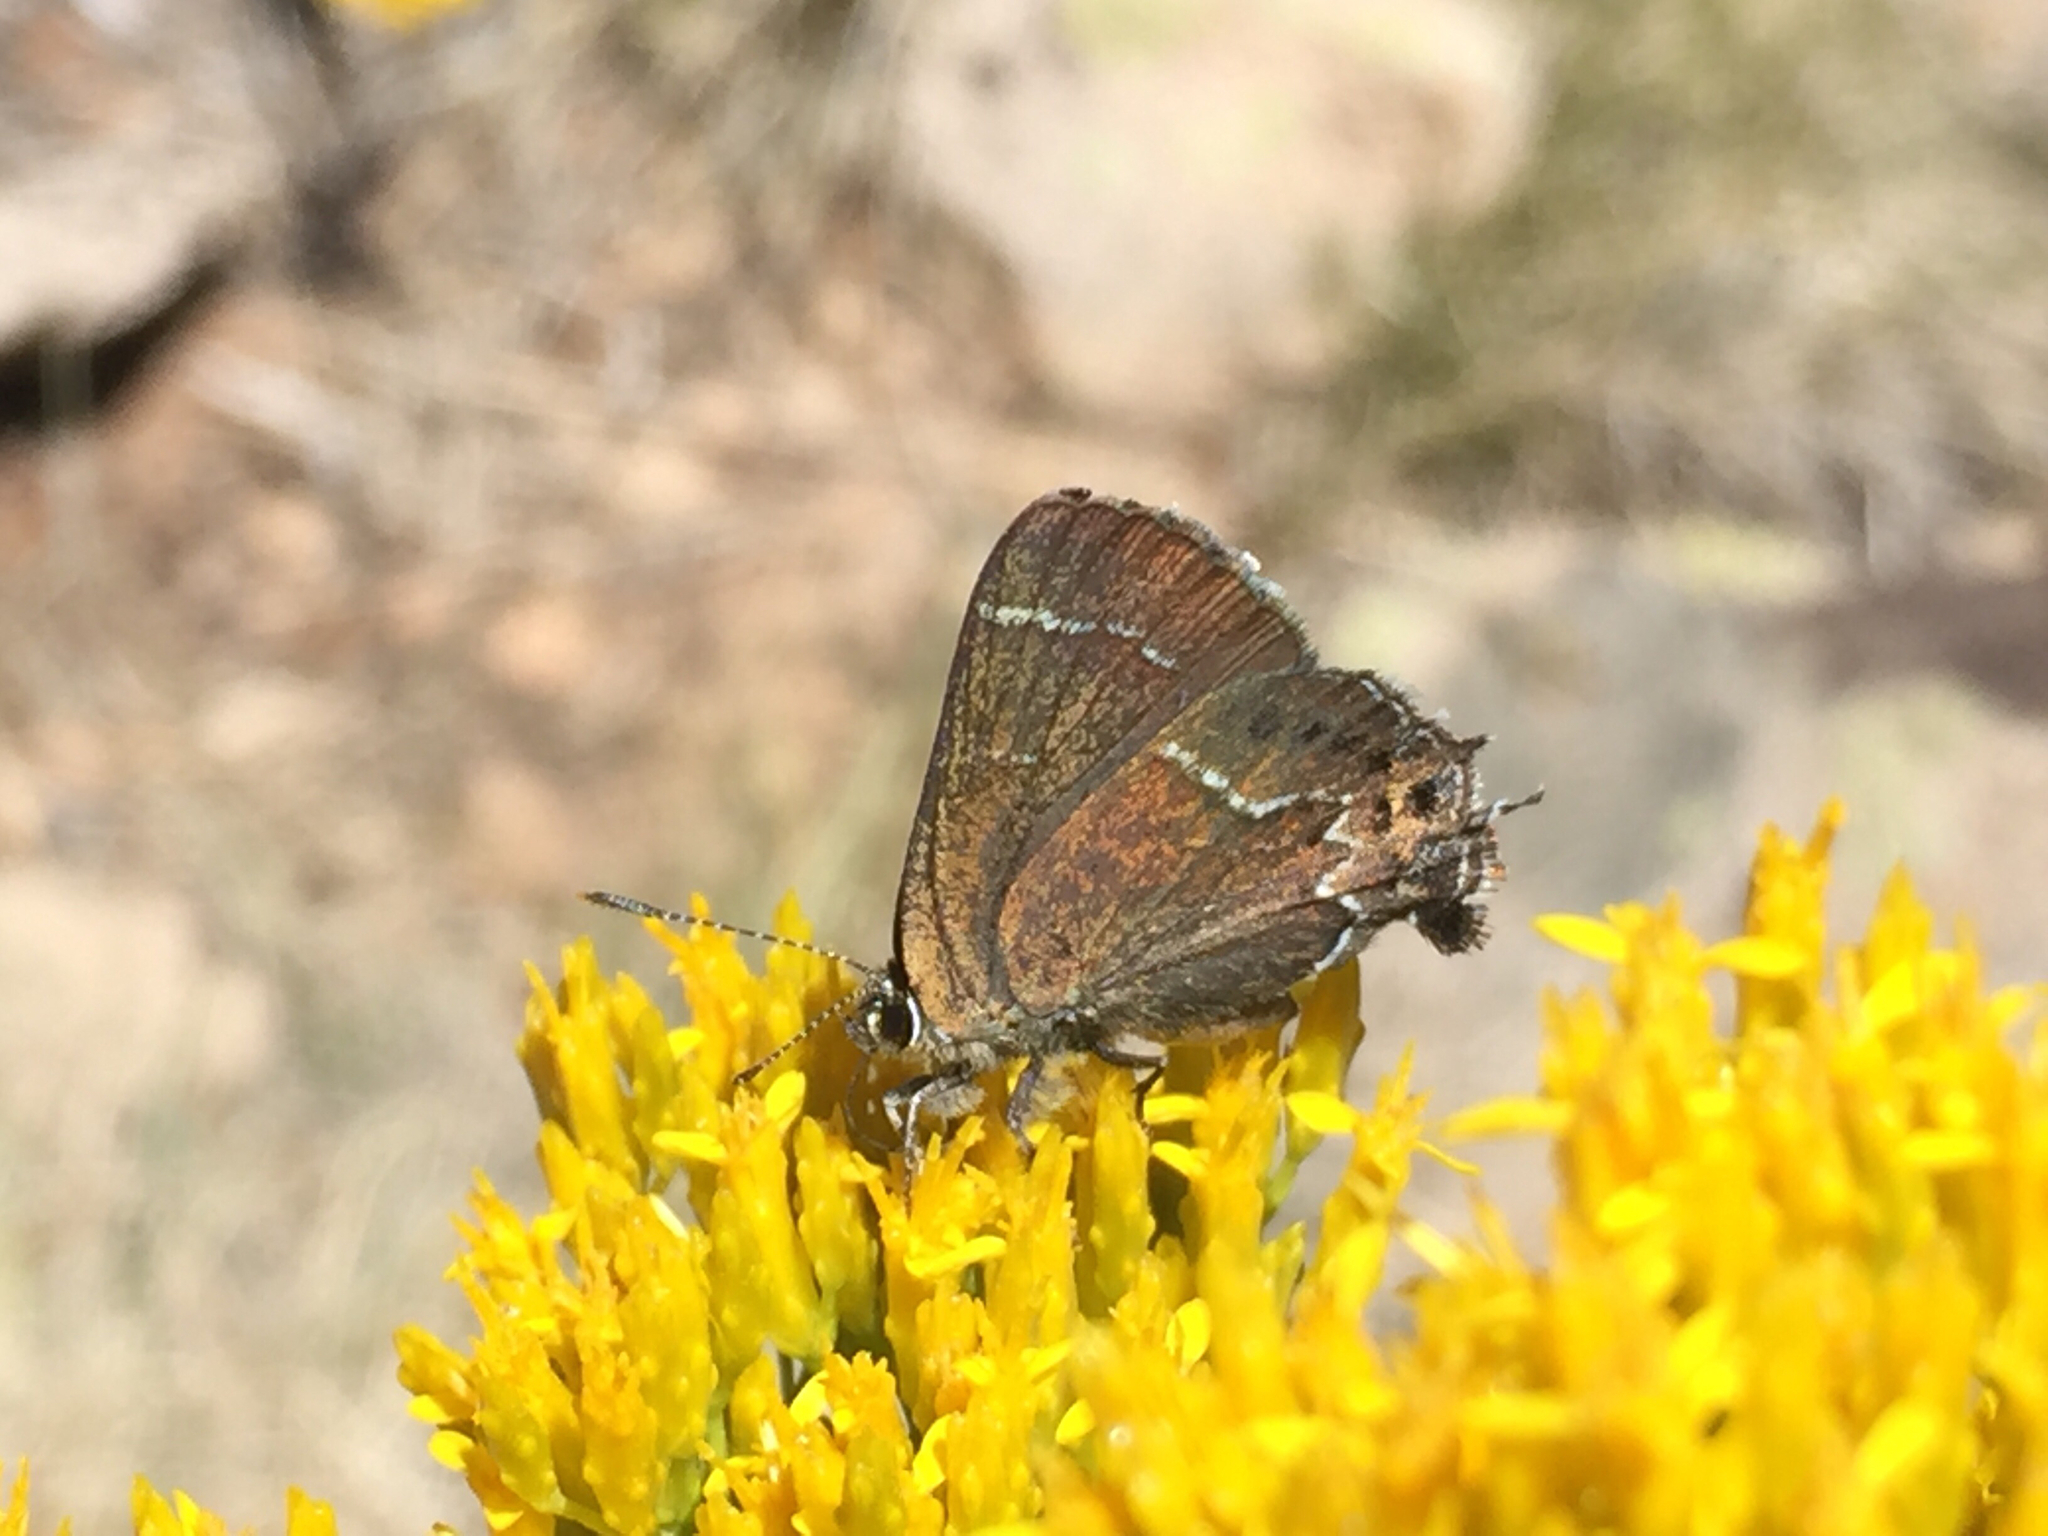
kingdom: Animalia
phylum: Arthropoda
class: Insecta
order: Lepidoptera
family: Lycaenidae
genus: Mitoura
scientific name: Mitoura spinetorum
